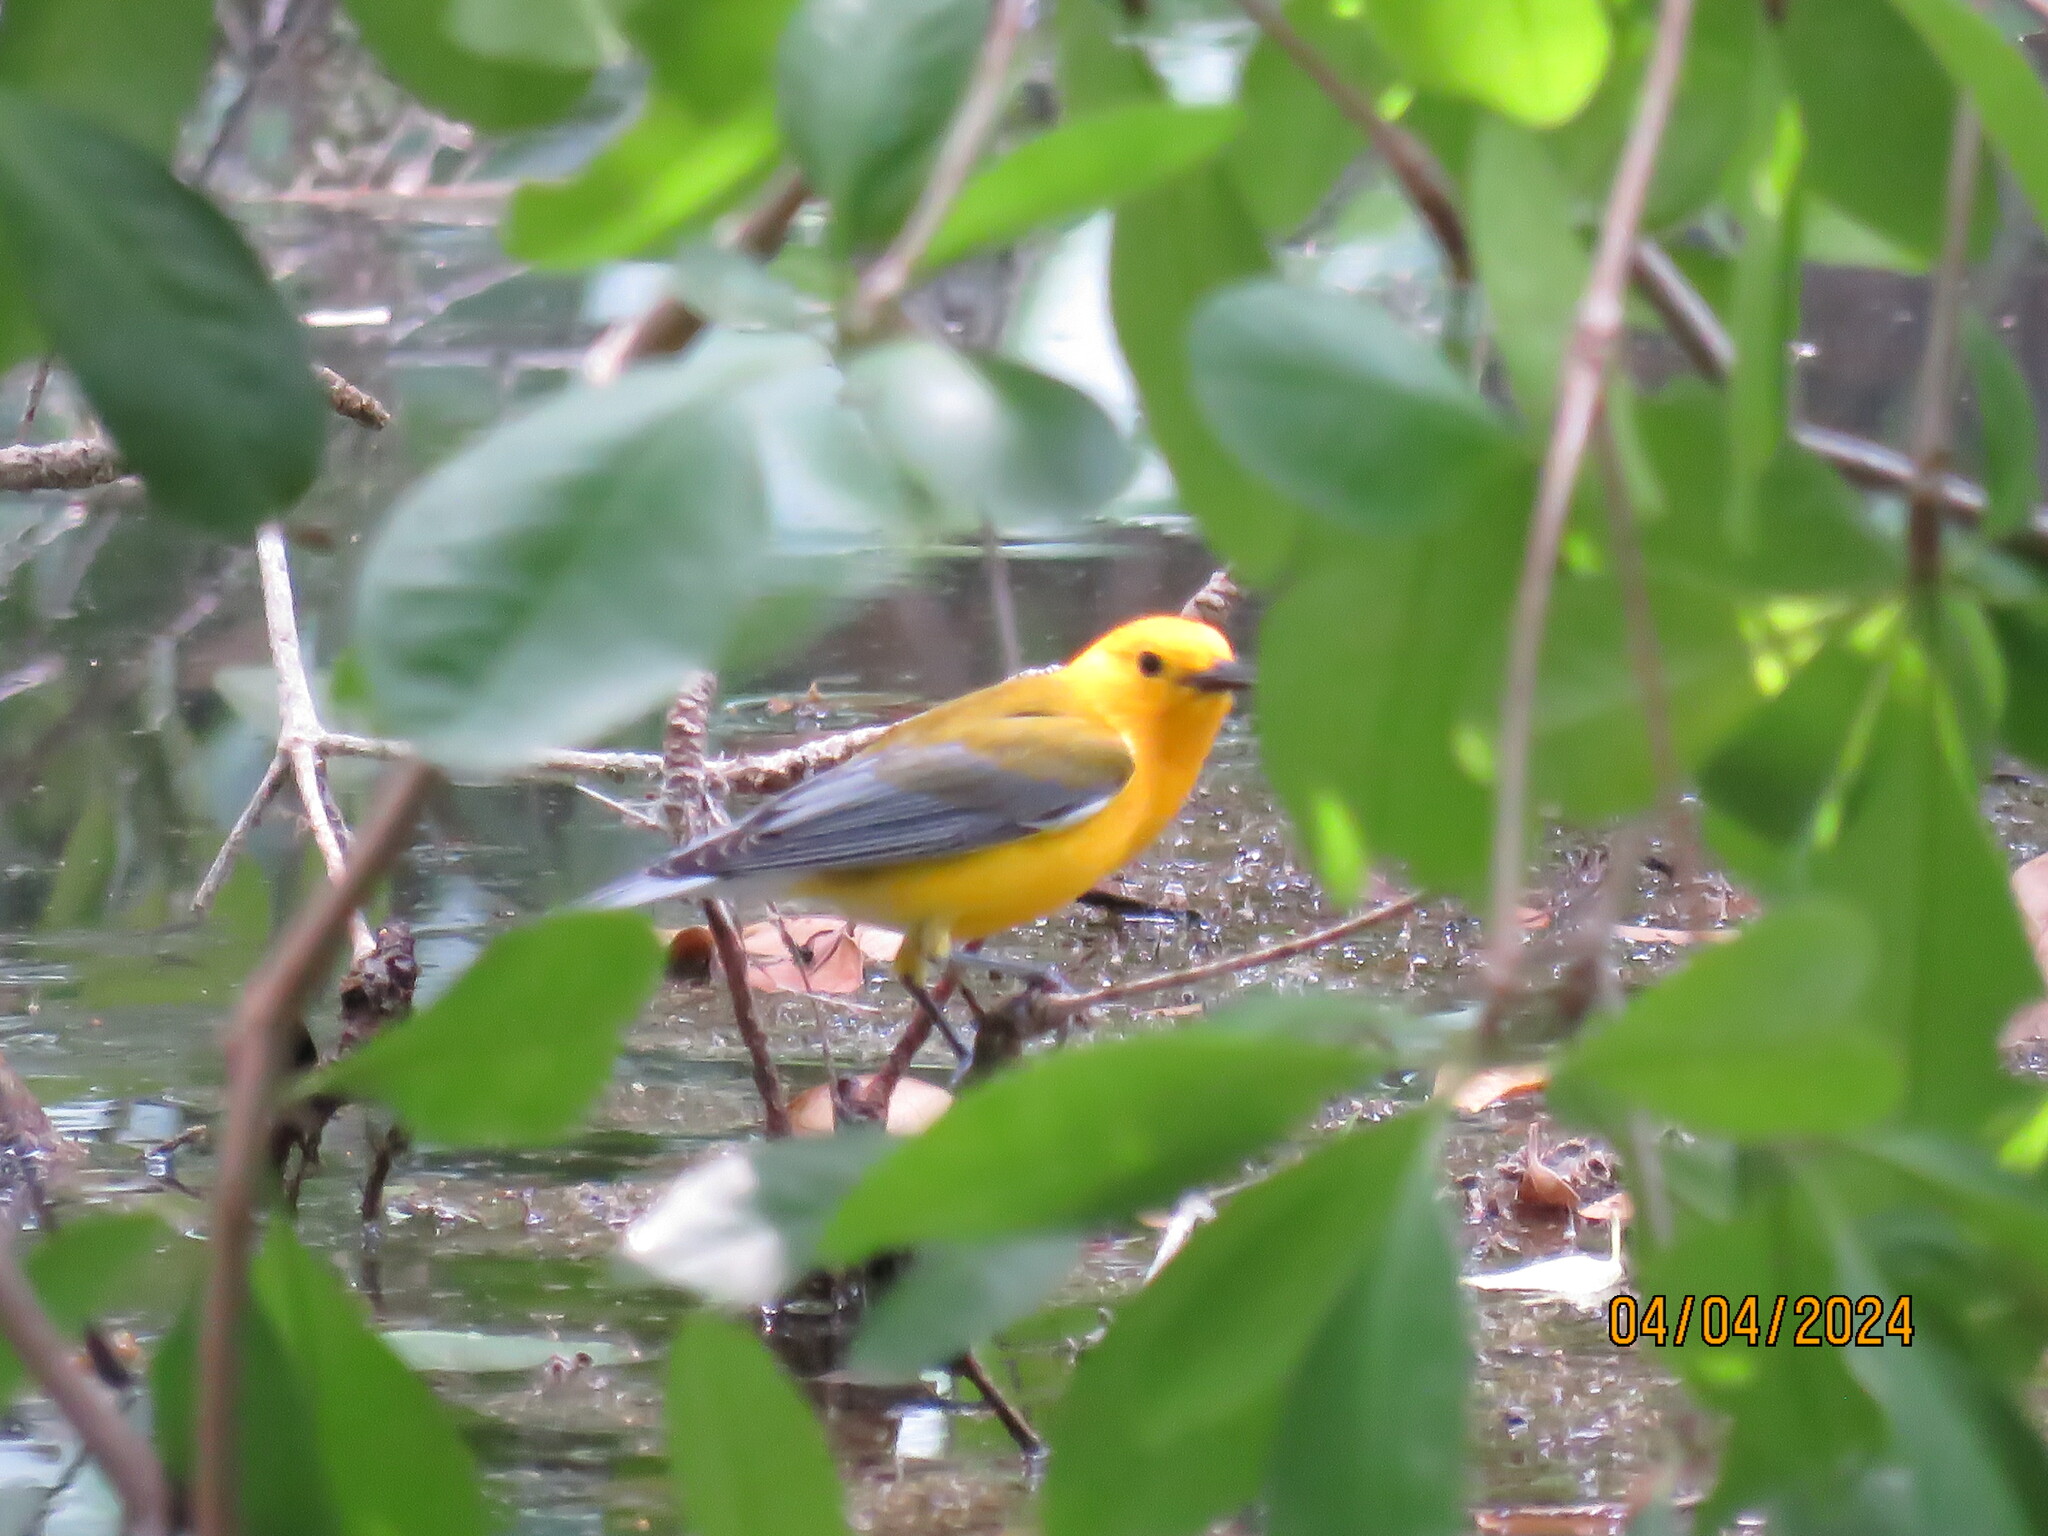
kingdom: Animalia
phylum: Chordata
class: Aves
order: Passeriformes
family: Parulidae
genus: Protonotaria
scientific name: Protonotaria citrea
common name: Prothonotary warbler
